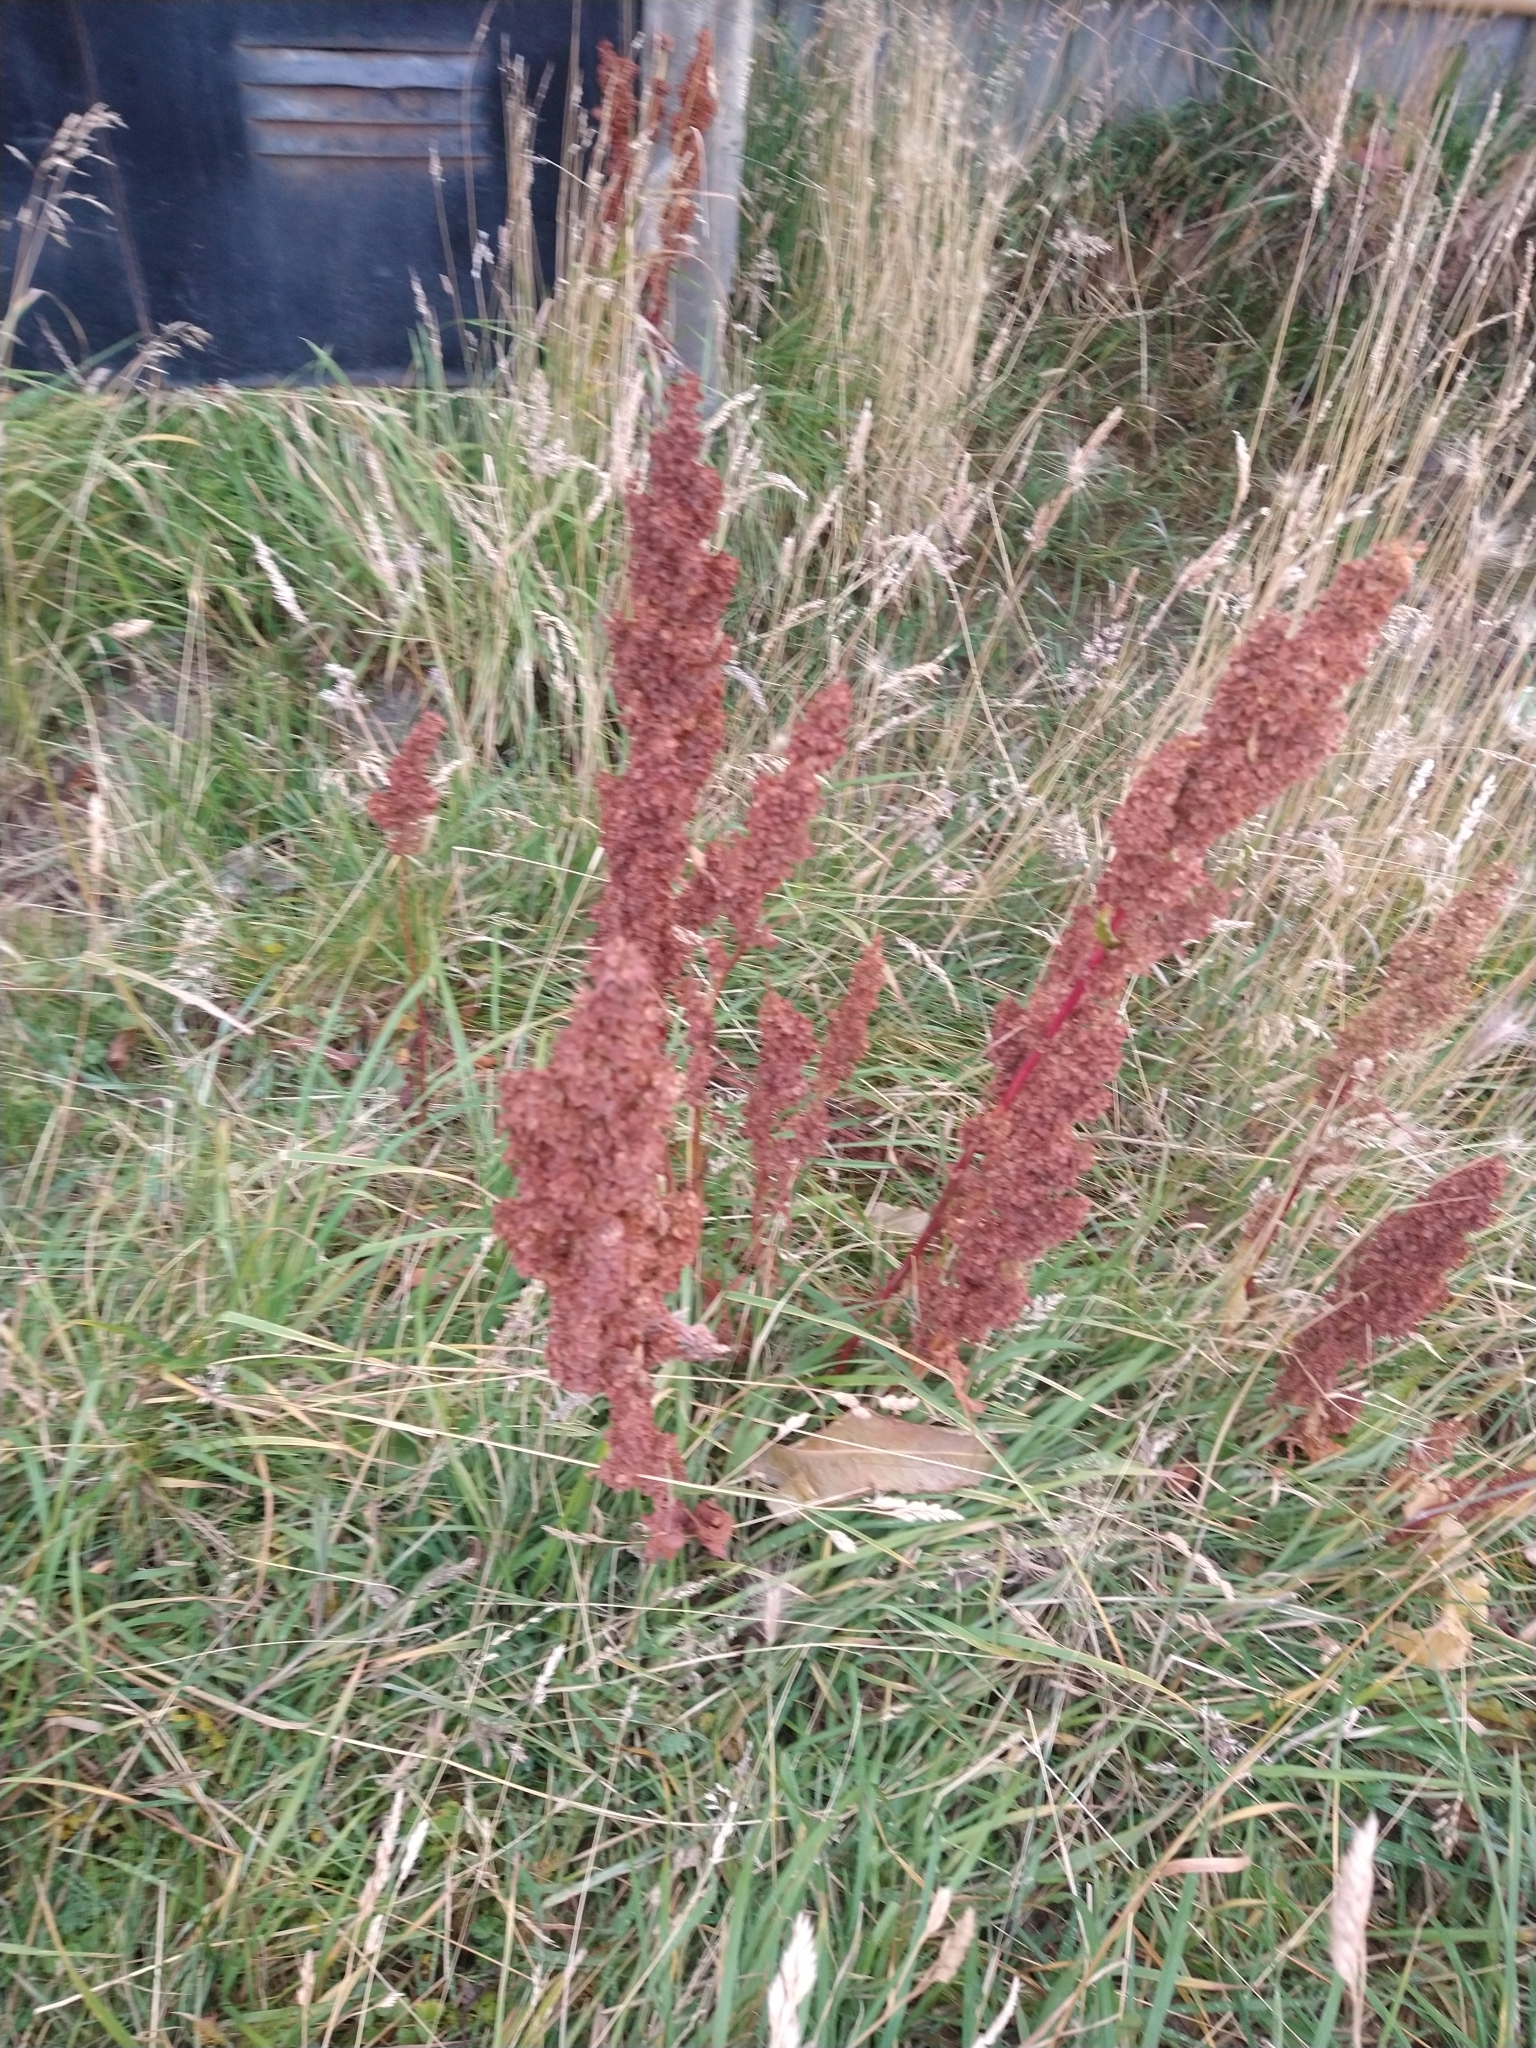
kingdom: Plantae
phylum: Tracheophyta
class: Magnoliopsida
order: Caryophyllales
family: Polygonaceae
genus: Rumex
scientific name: Rumex crispus
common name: Curled dock
